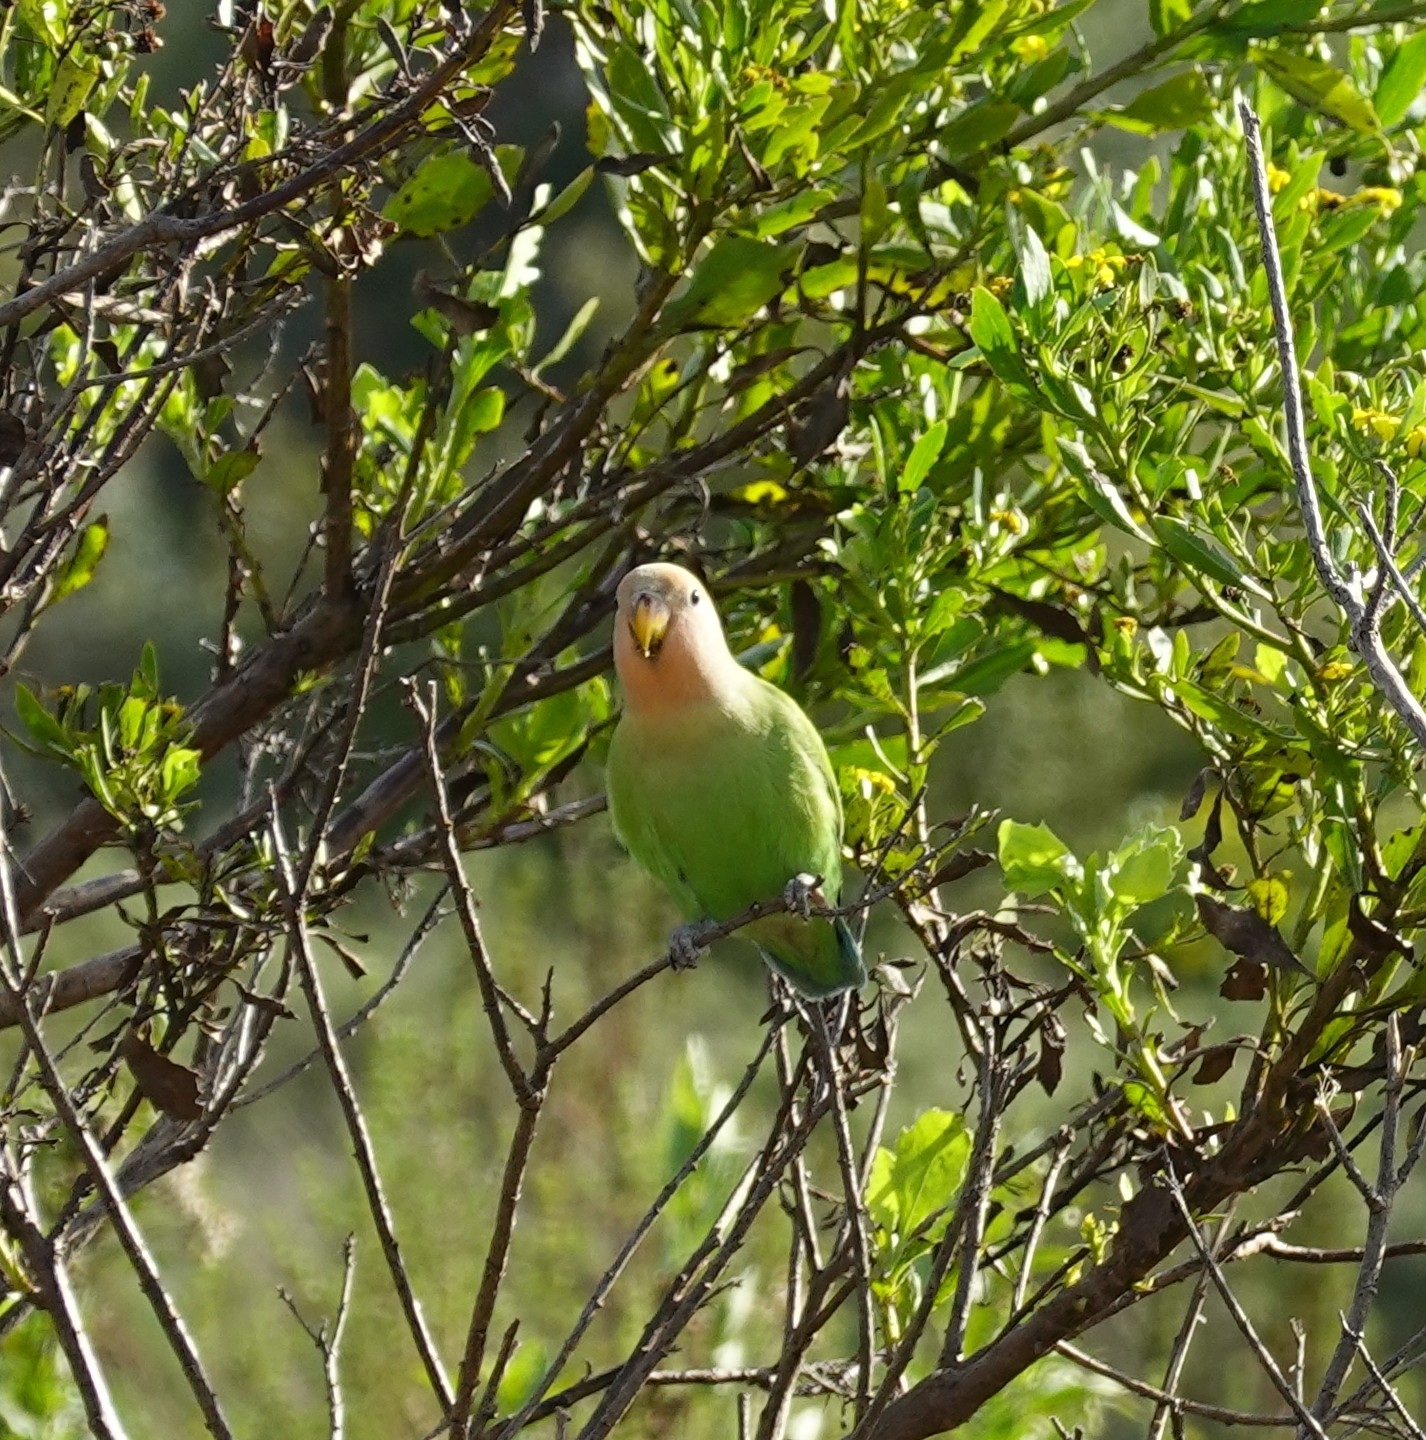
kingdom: Animalia
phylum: Chordata
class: Aves
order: Psittaciformes
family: Psittacidae
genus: Agapornis
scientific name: Agapornis roseicollis
